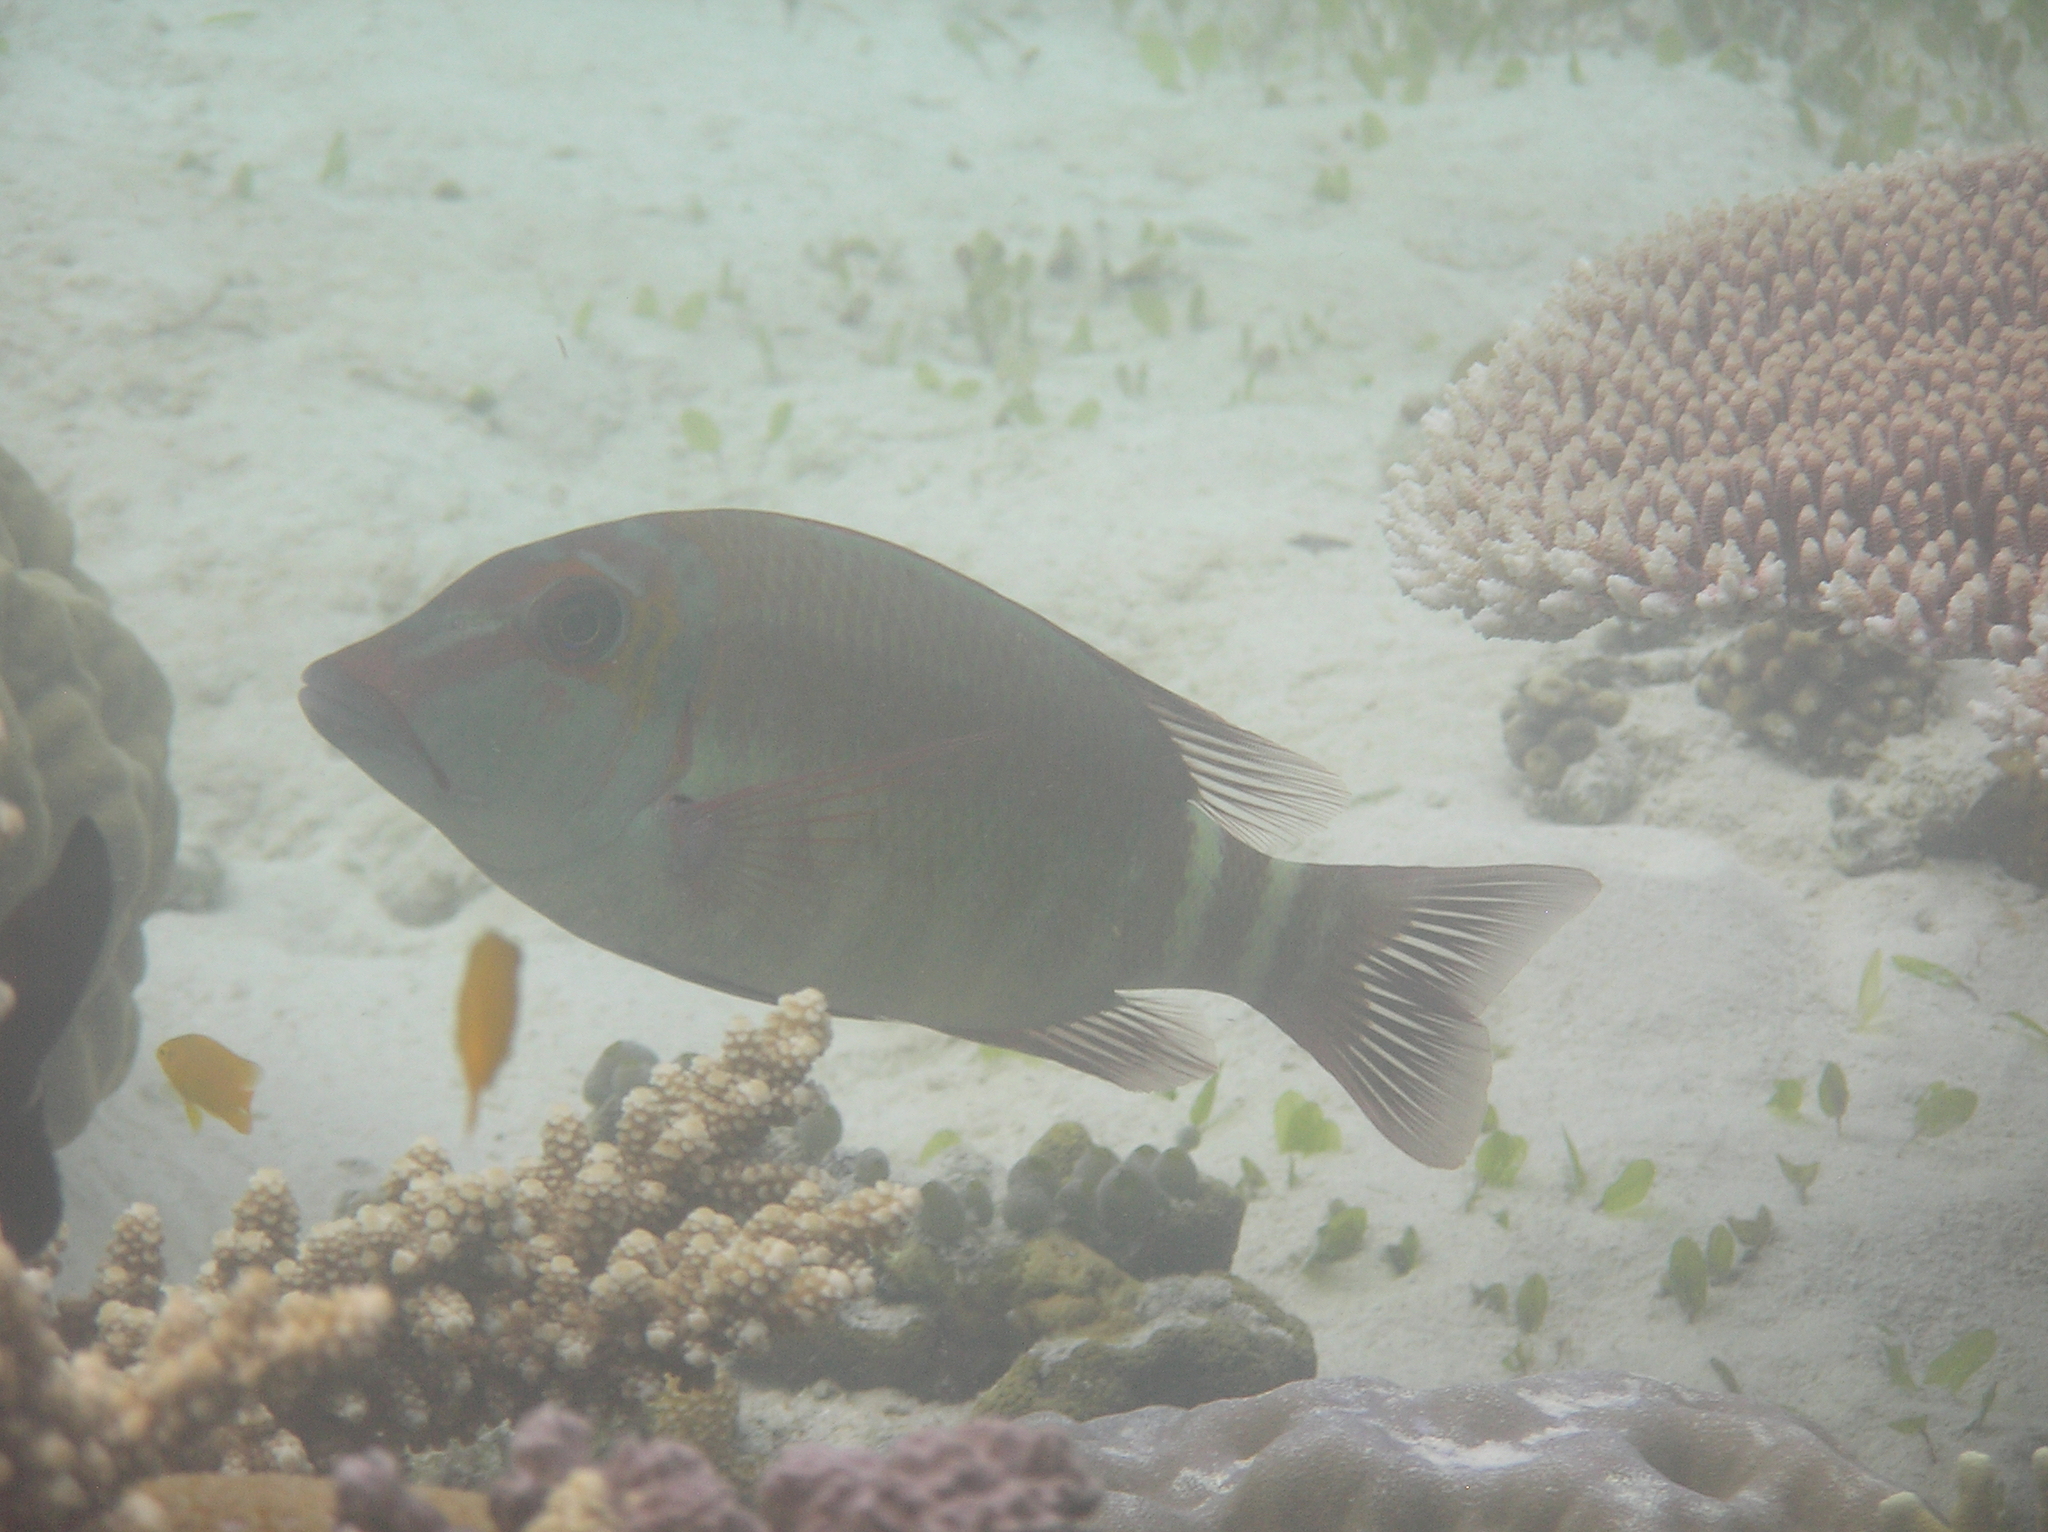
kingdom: Animalia
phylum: Chordata
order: Perciformes
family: Lethrinidae
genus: Lethrinus
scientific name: Lethrinus erythropterus
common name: Longfin emperor
